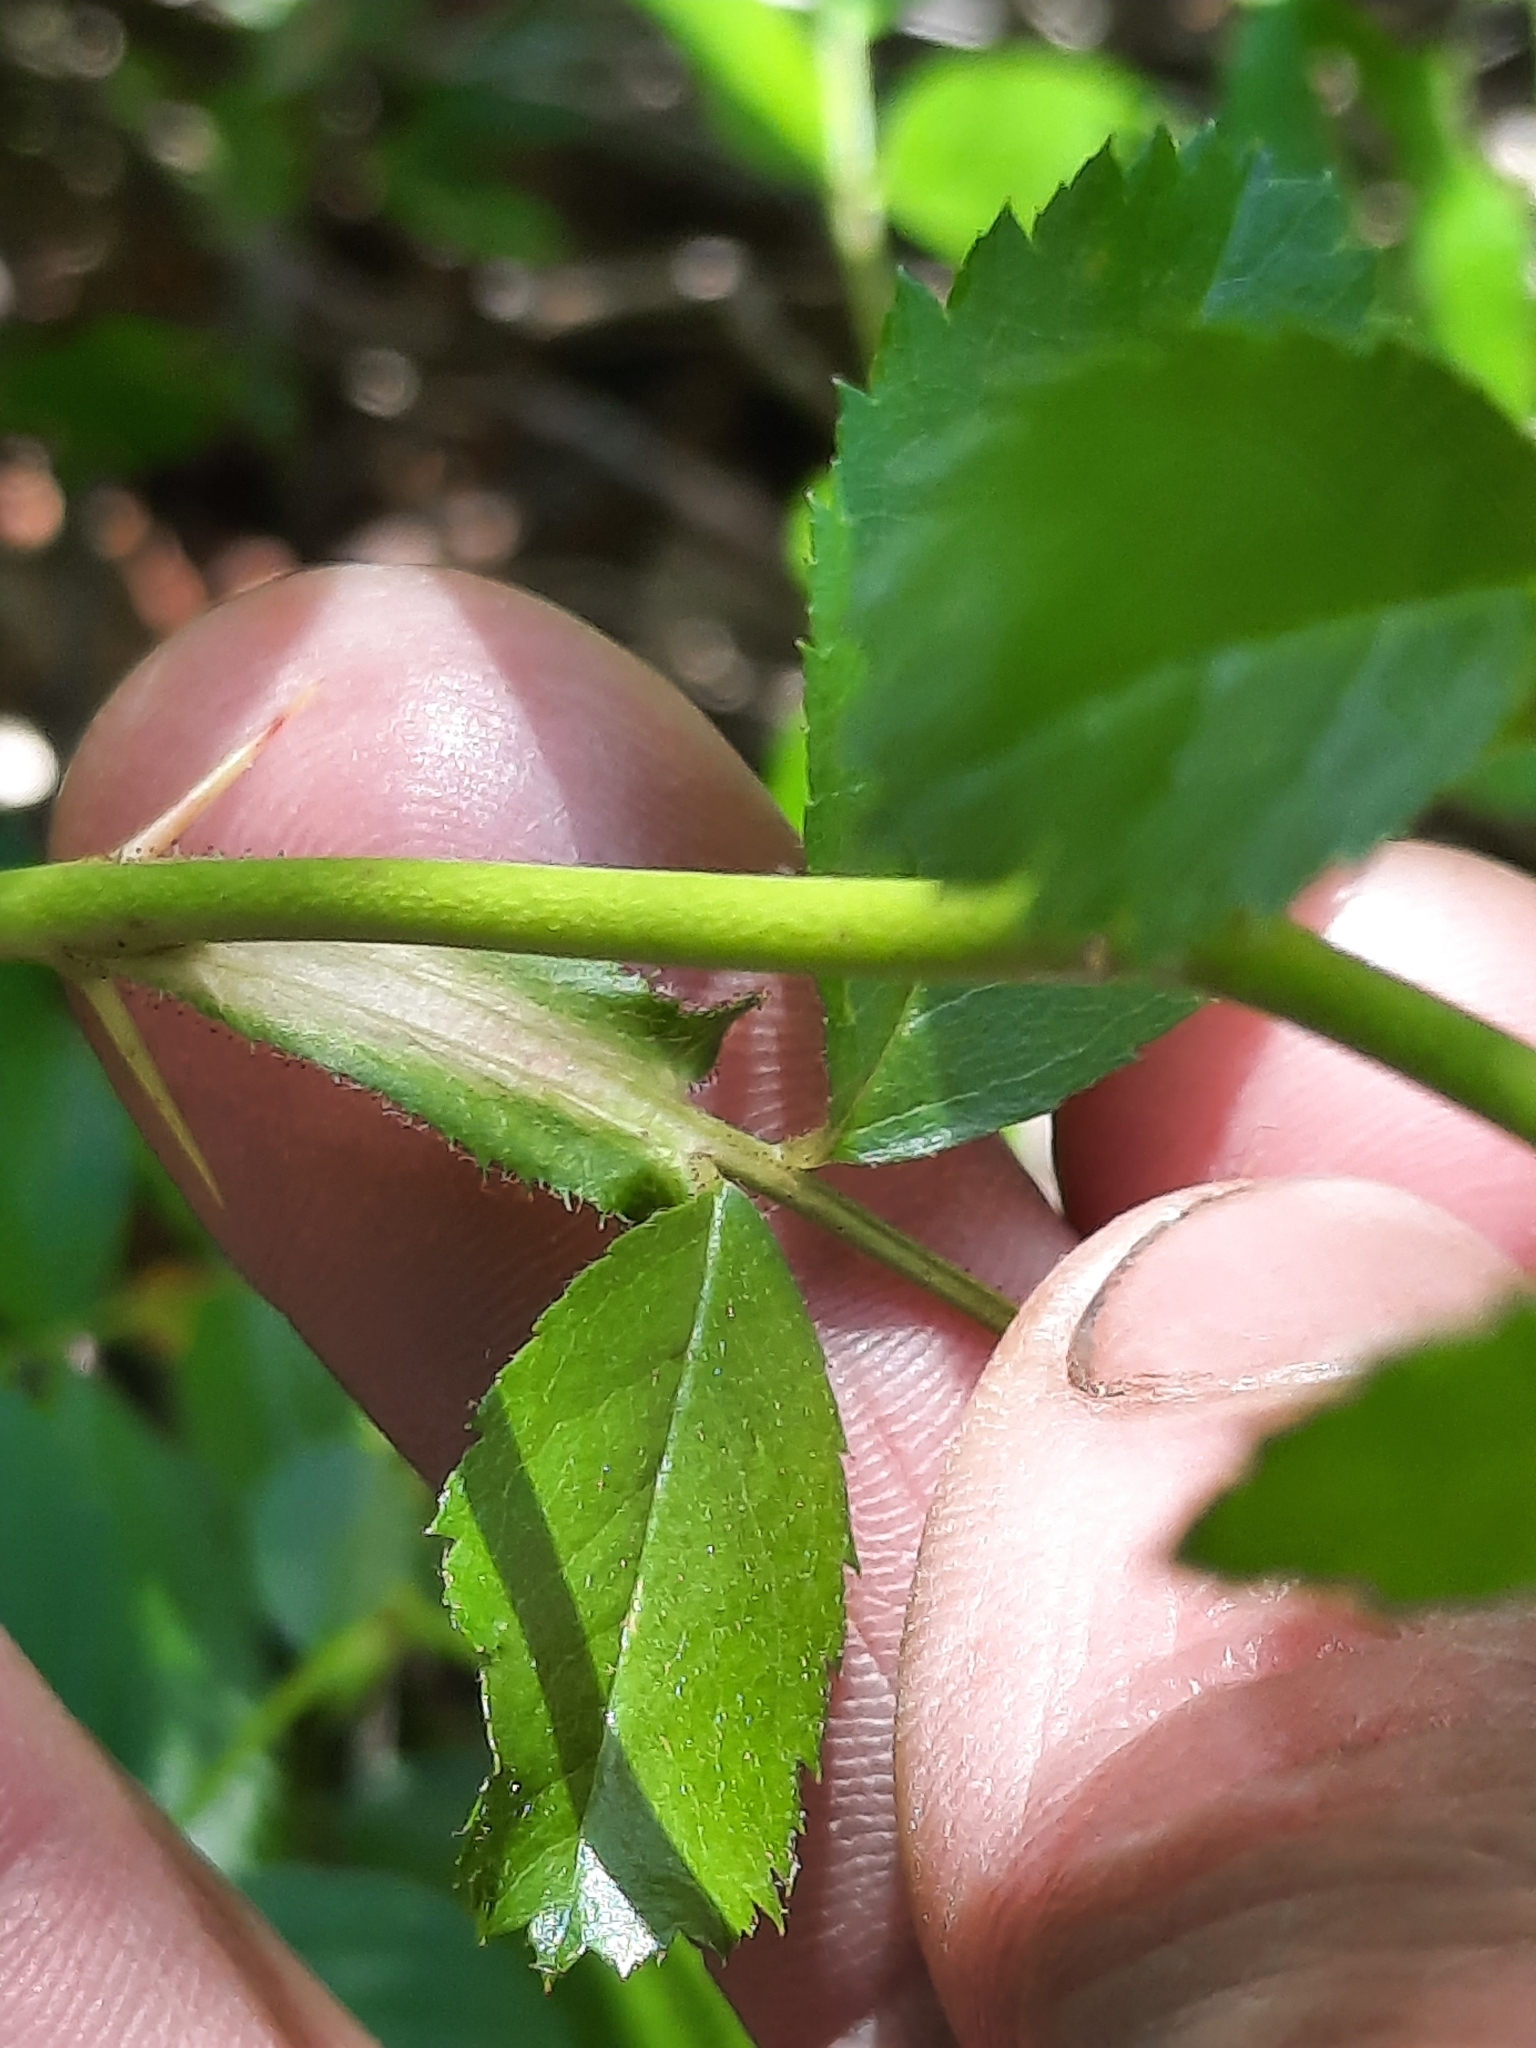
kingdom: Plantae
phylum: Tracheophyta
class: Magnoliopsida
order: Rosales
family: Rosaceae
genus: Rosa
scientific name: Rosa carolina
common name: Pasture rose
